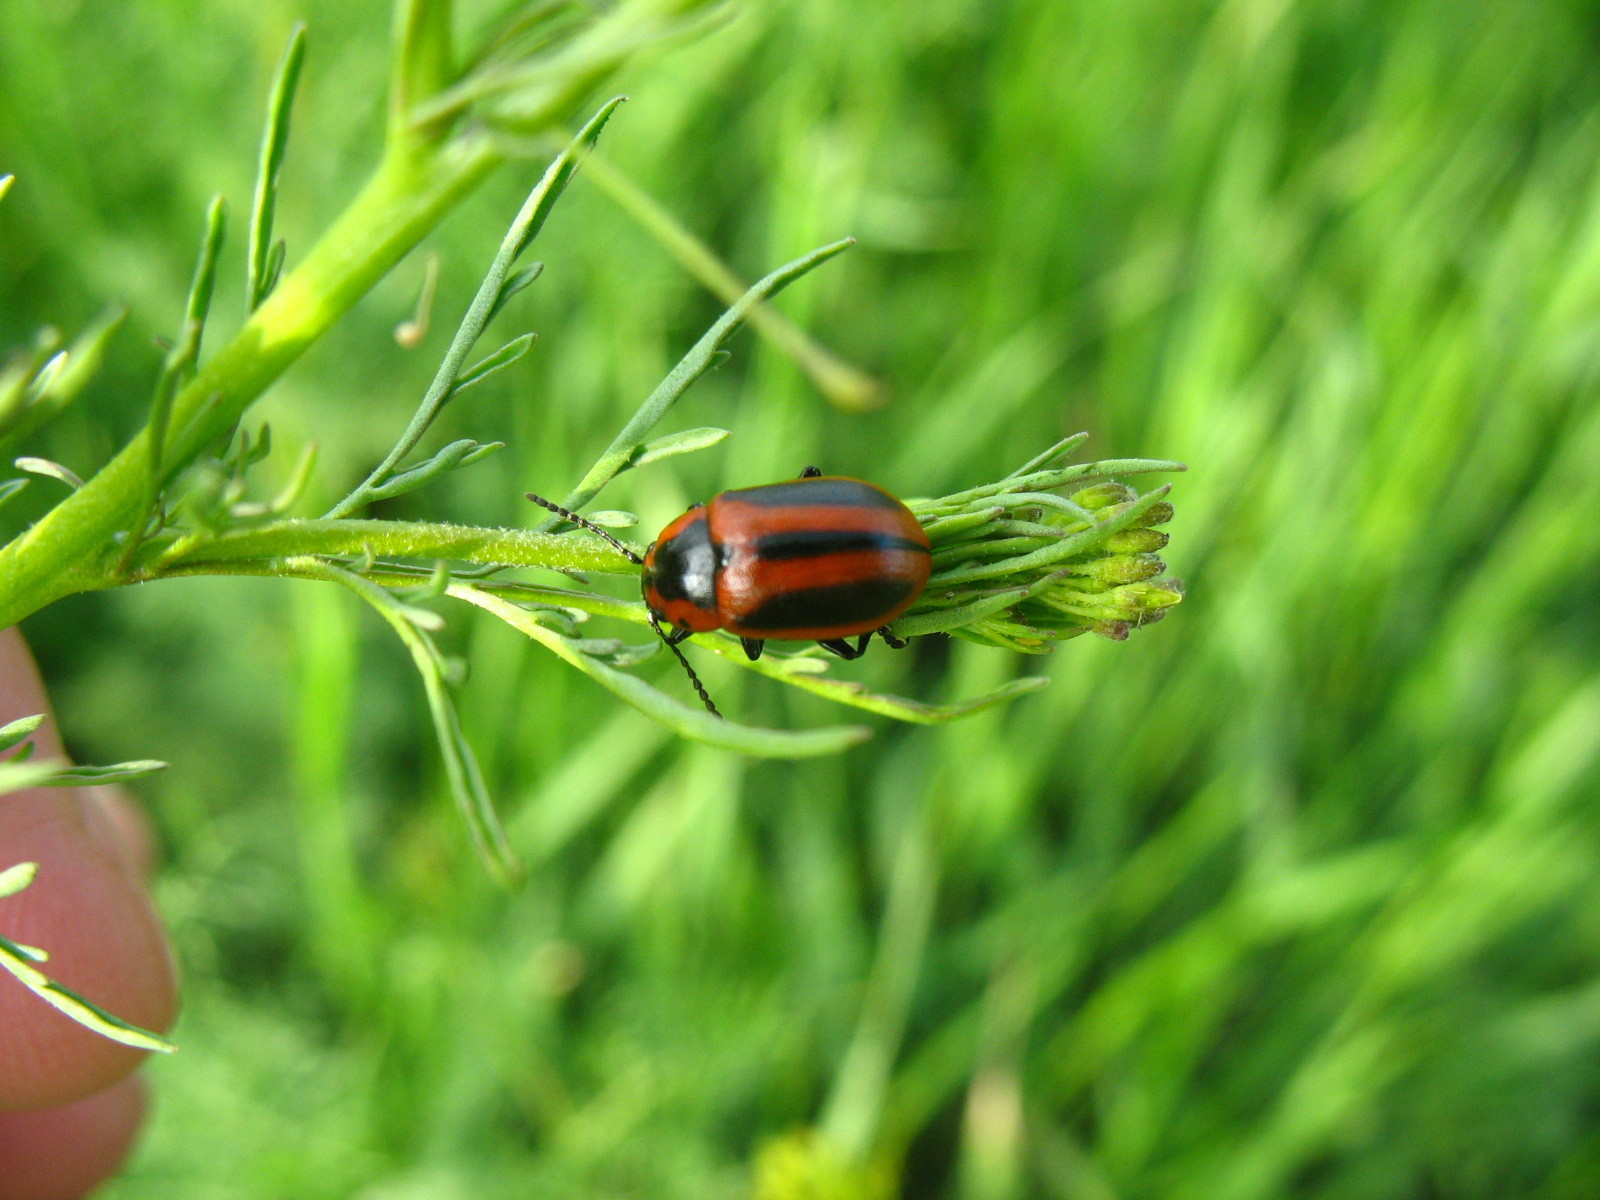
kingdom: Animalia
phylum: Arthropoda
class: Insecta
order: Coleoptera
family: Chrysomelidae
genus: Entomoscelis
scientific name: Entomoscelis adonidis
